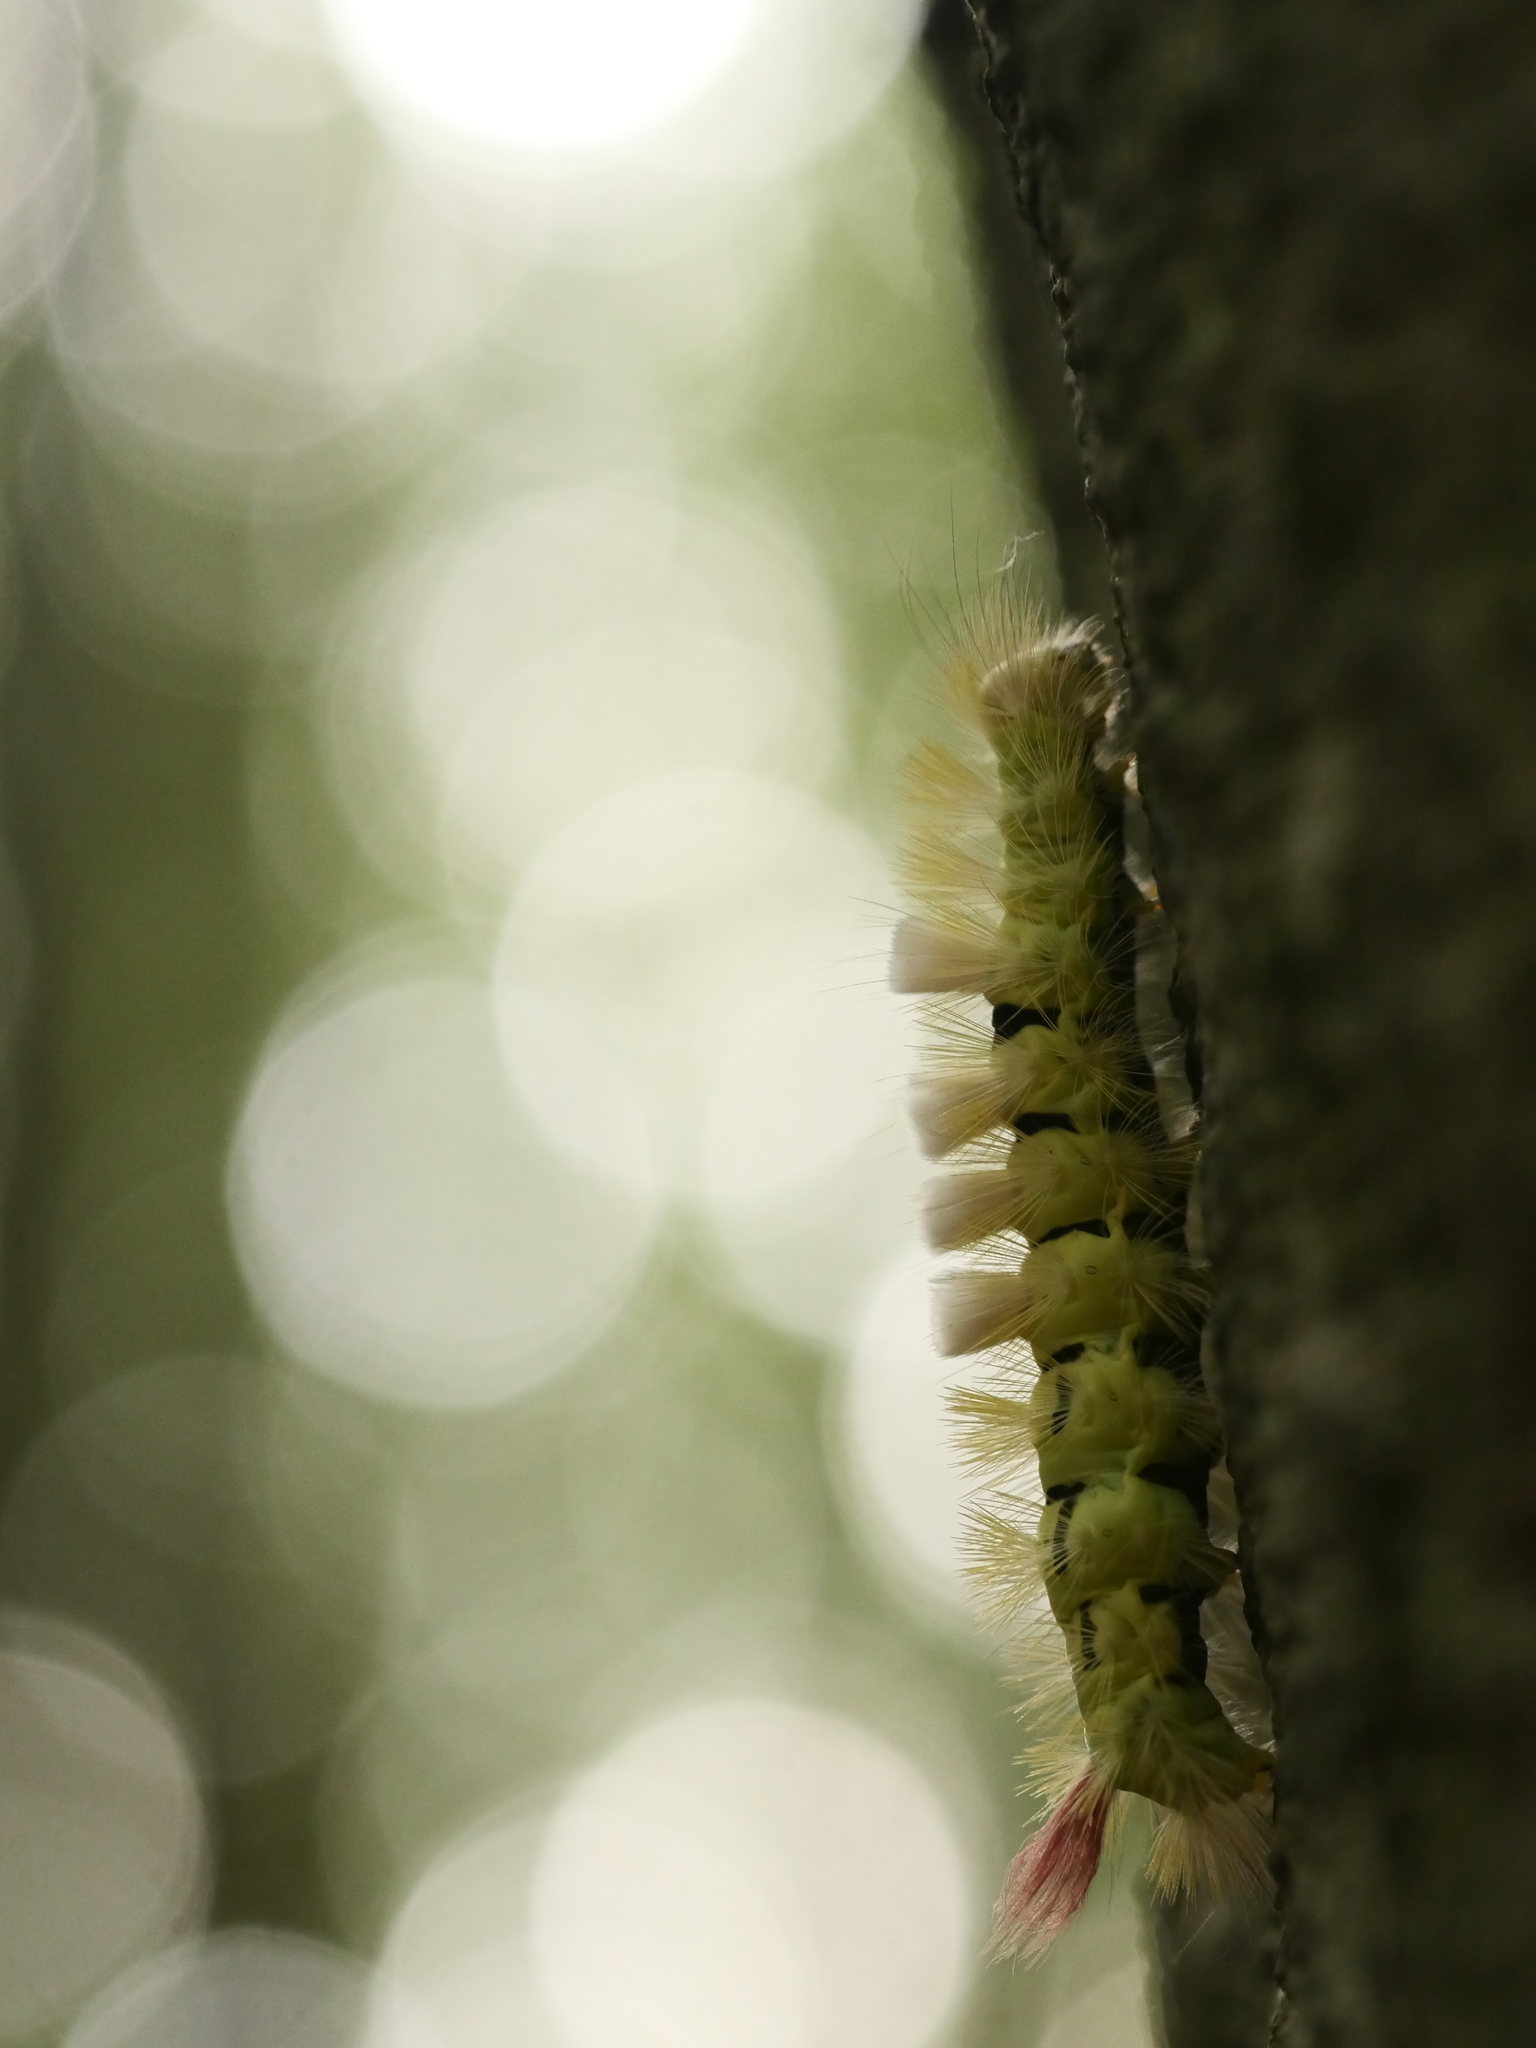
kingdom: Animalia
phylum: Arthropoda
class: Insecta
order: Lepidoptera
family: Erebidae
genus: Calliteara
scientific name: Calliteara pudibunda
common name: Pale tussock
